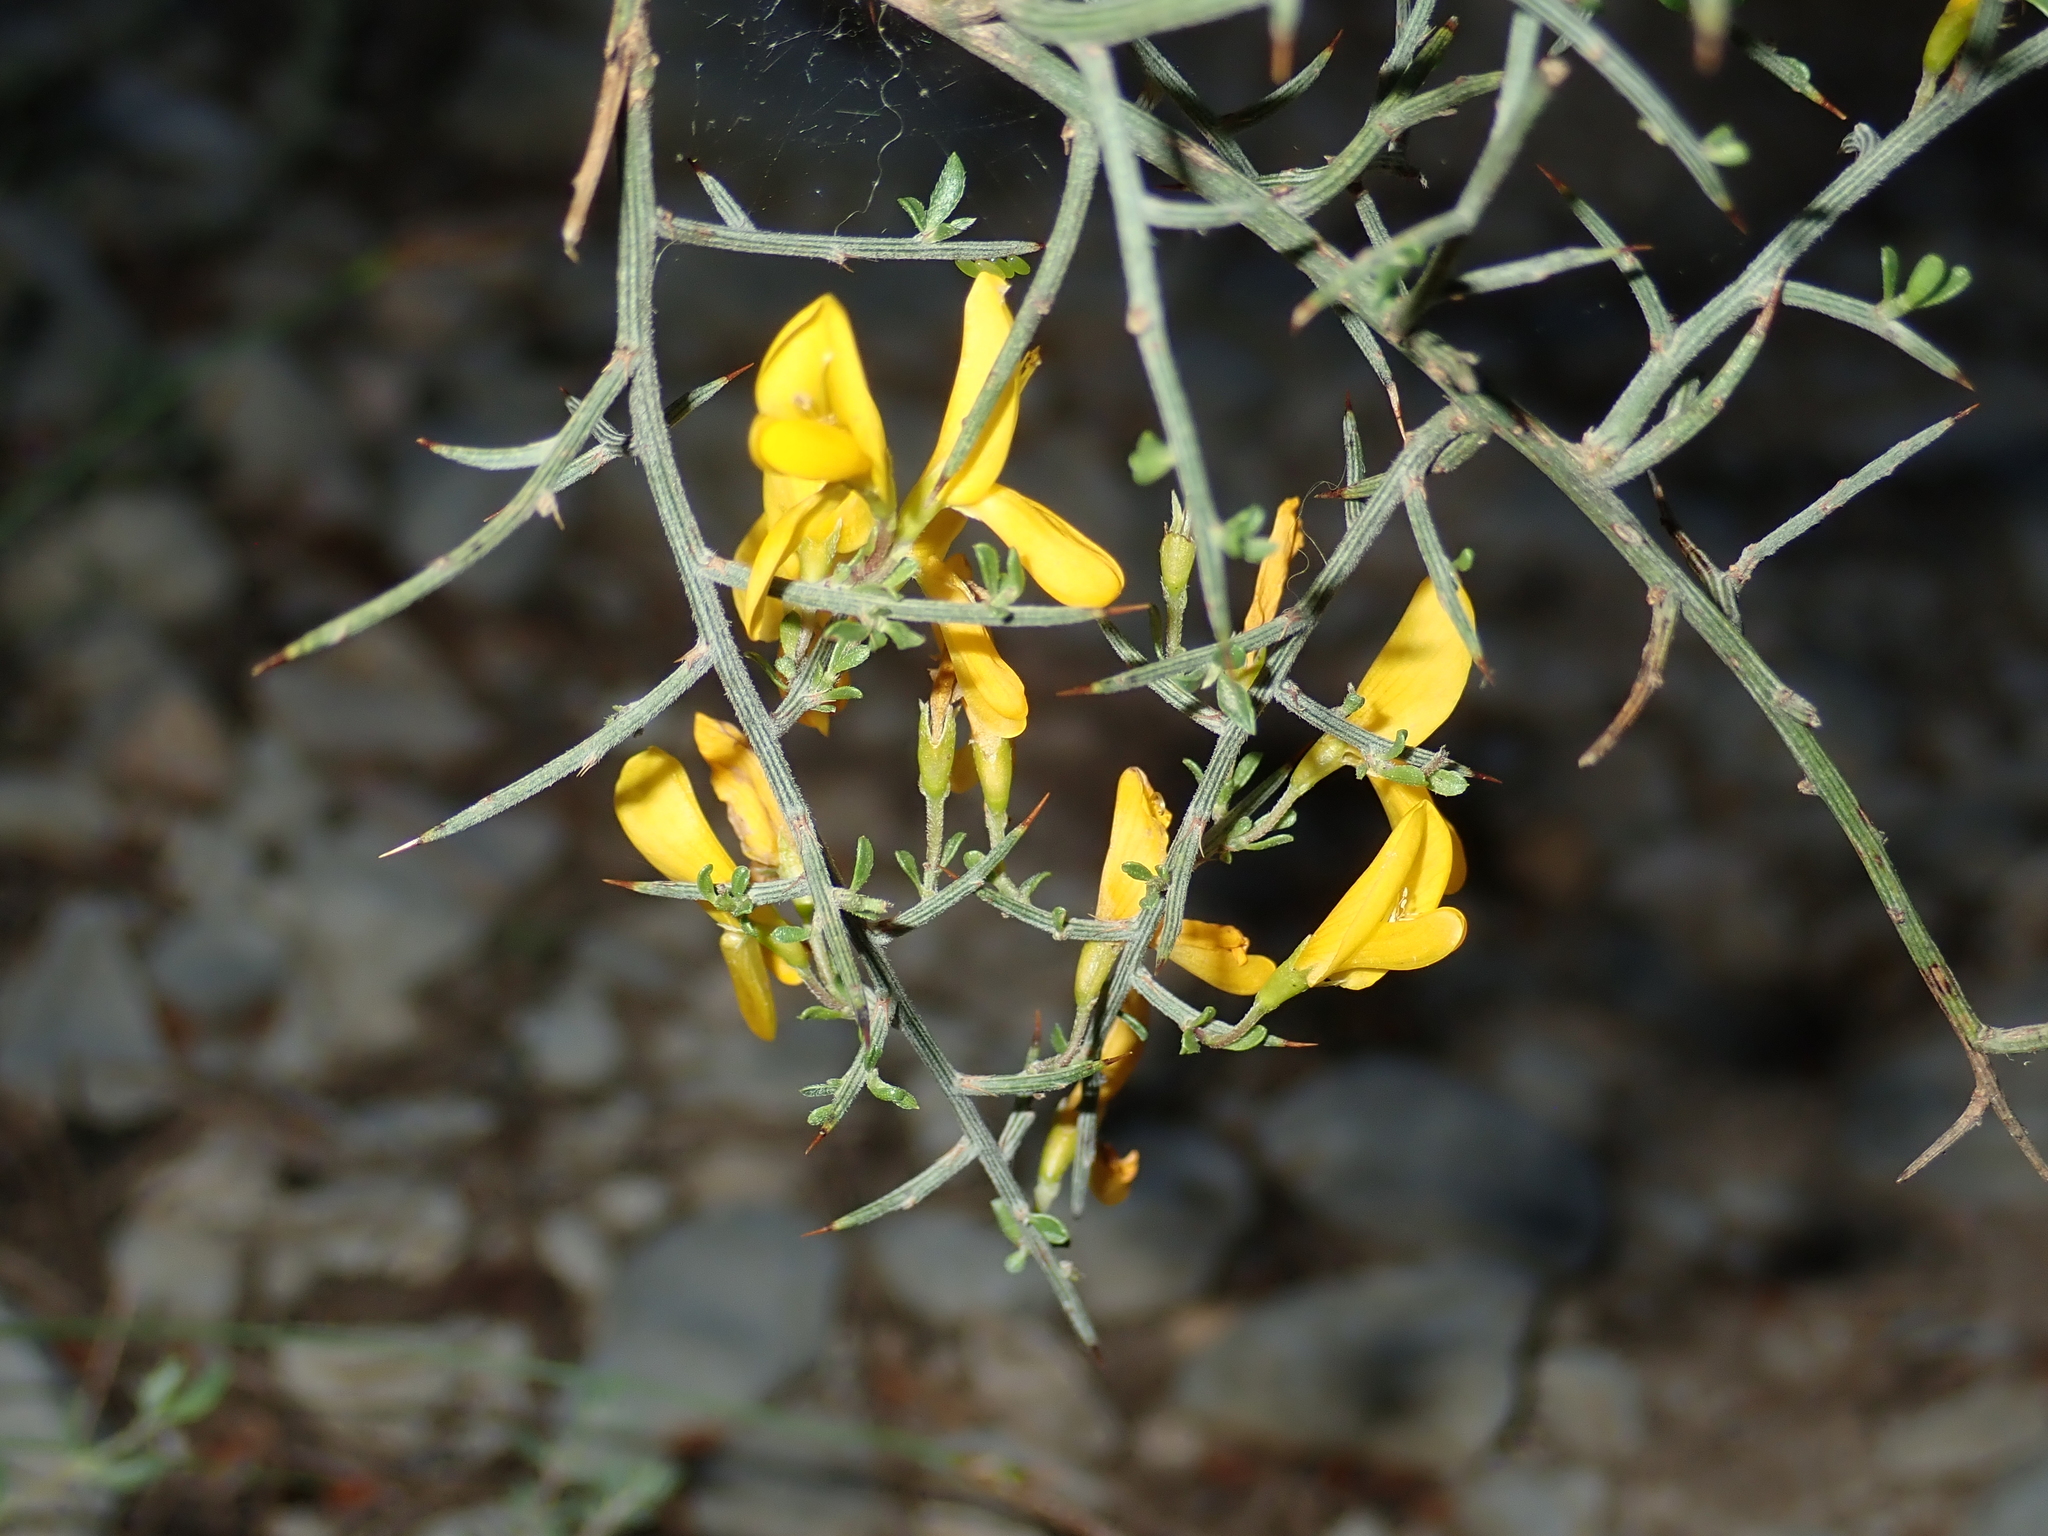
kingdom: Plantae
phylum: Tracheophyta
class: Magnoliopsida
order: Fabales
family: Fabaceae
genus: Genista
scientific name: Genista scorpius
